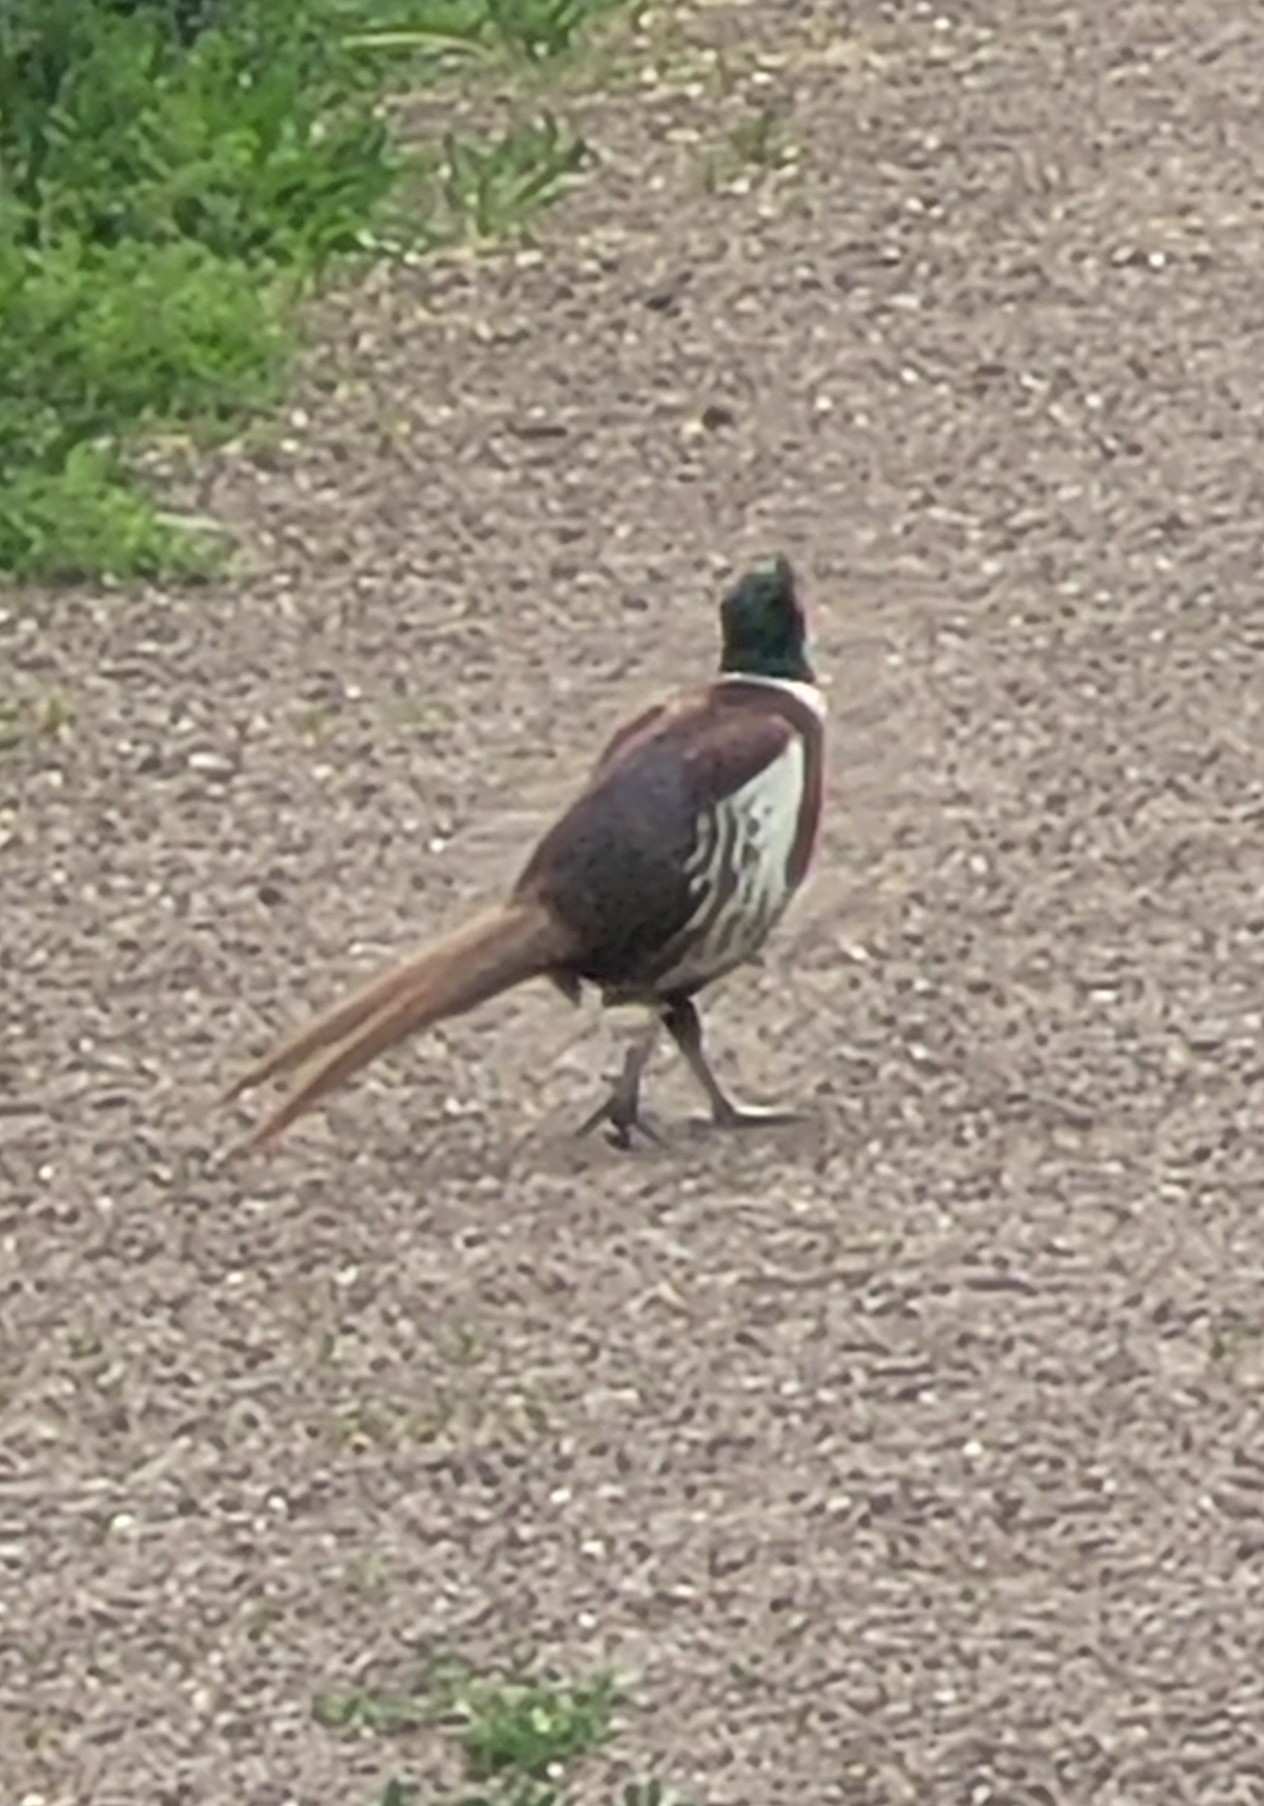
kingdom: Animalia
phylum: Chordata
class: Aves
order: Galliformes
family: Phasianidae
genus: Phasianus
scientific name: Phasianus colchicus
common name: Common pheasant
